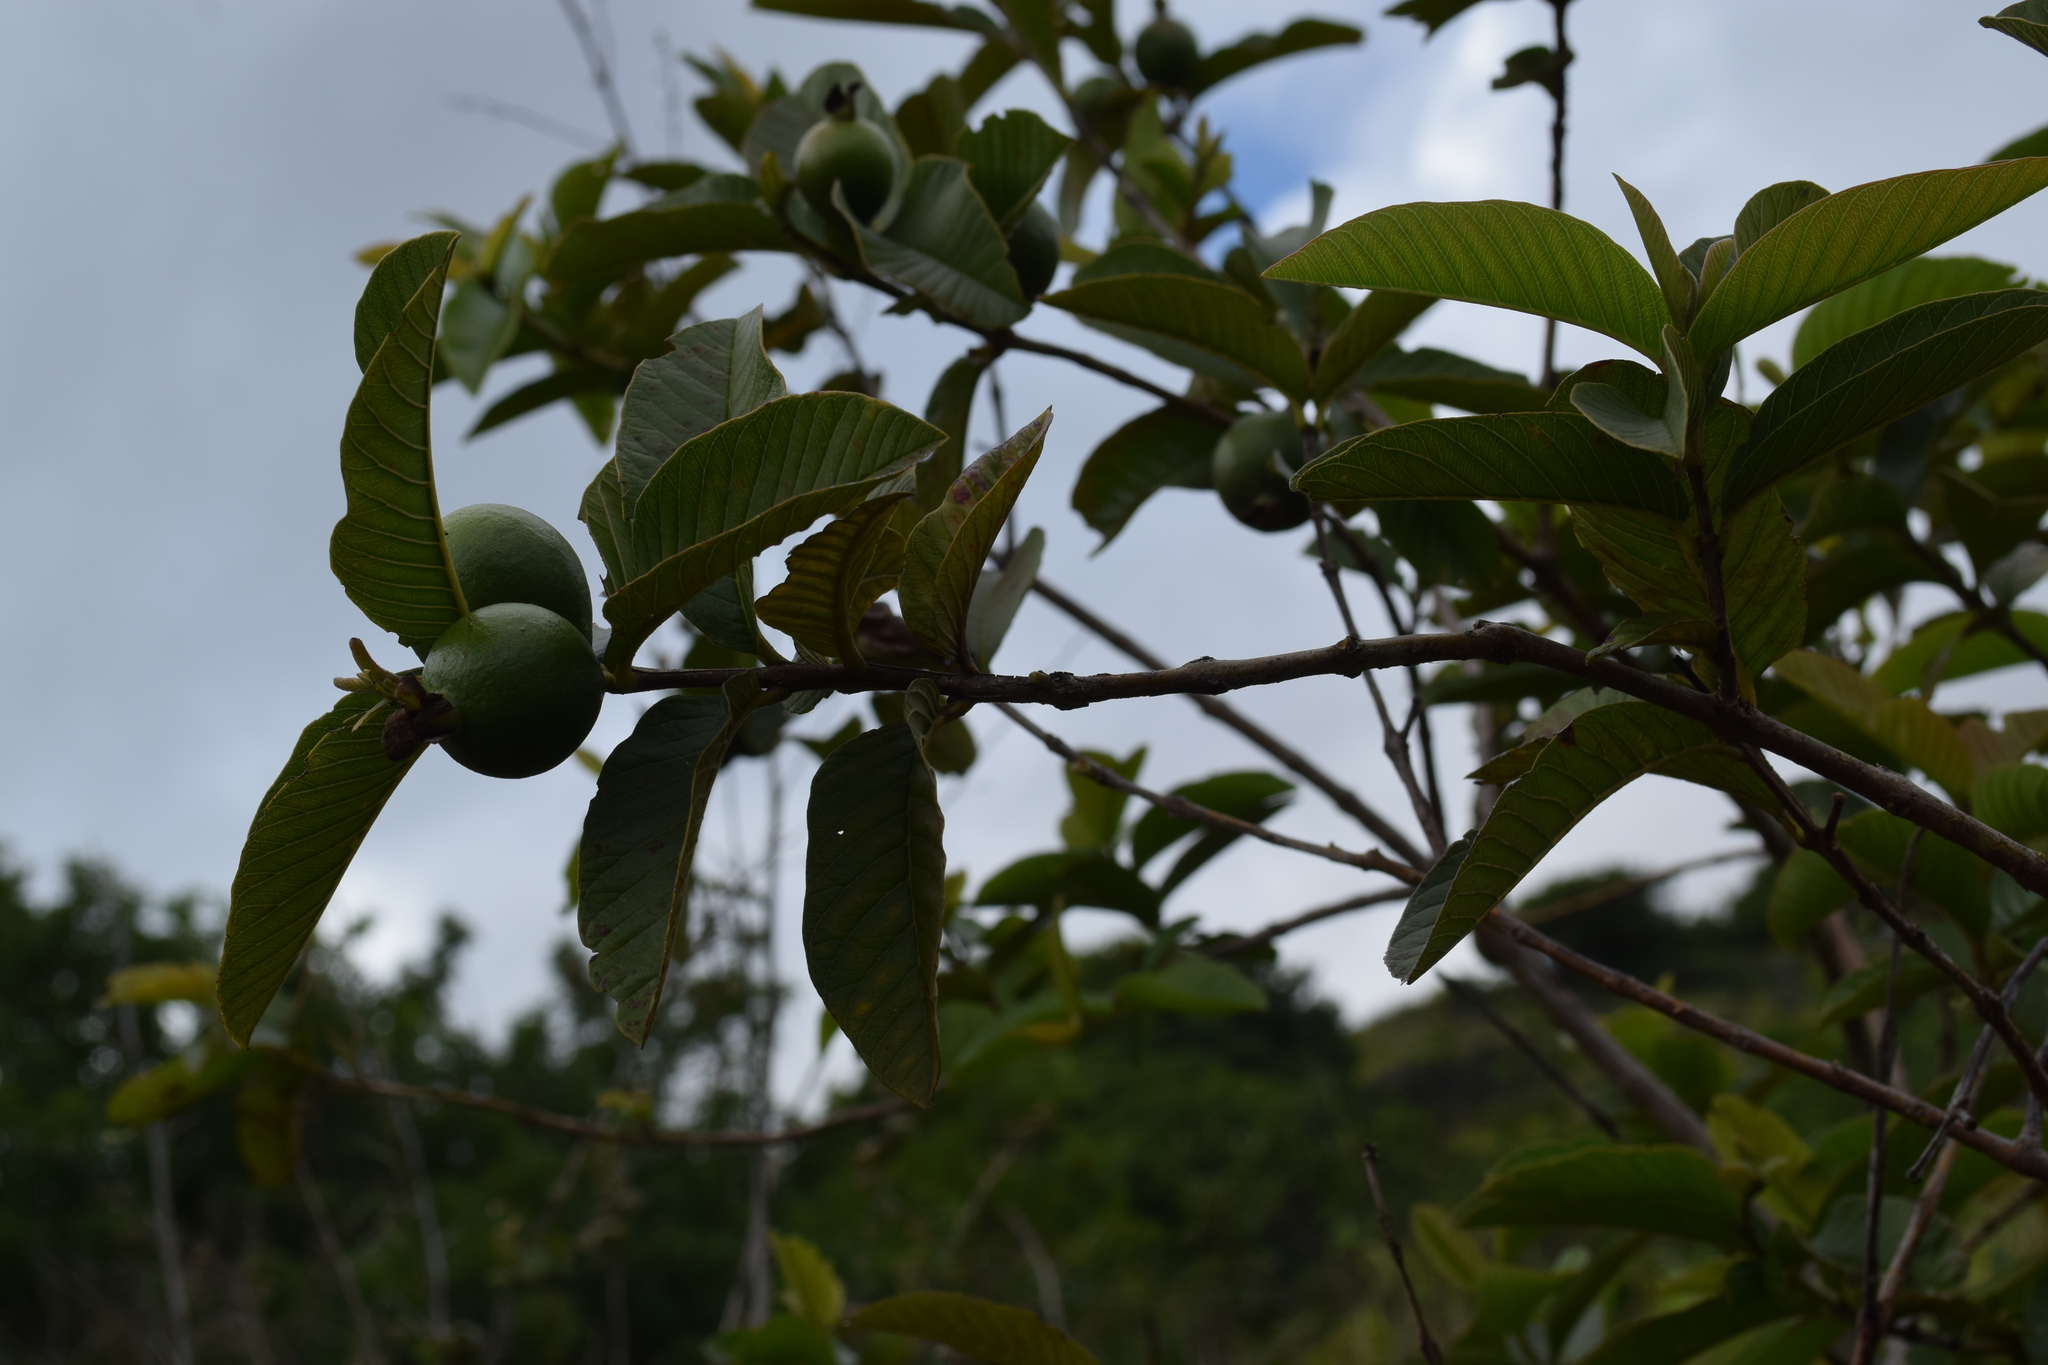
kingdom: Plantae
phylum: Tracheophyta
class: Magnoliopsida
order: Myrtales
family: Myrtaceae
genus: Psidium
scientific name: Psidium guajava
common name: Guava
